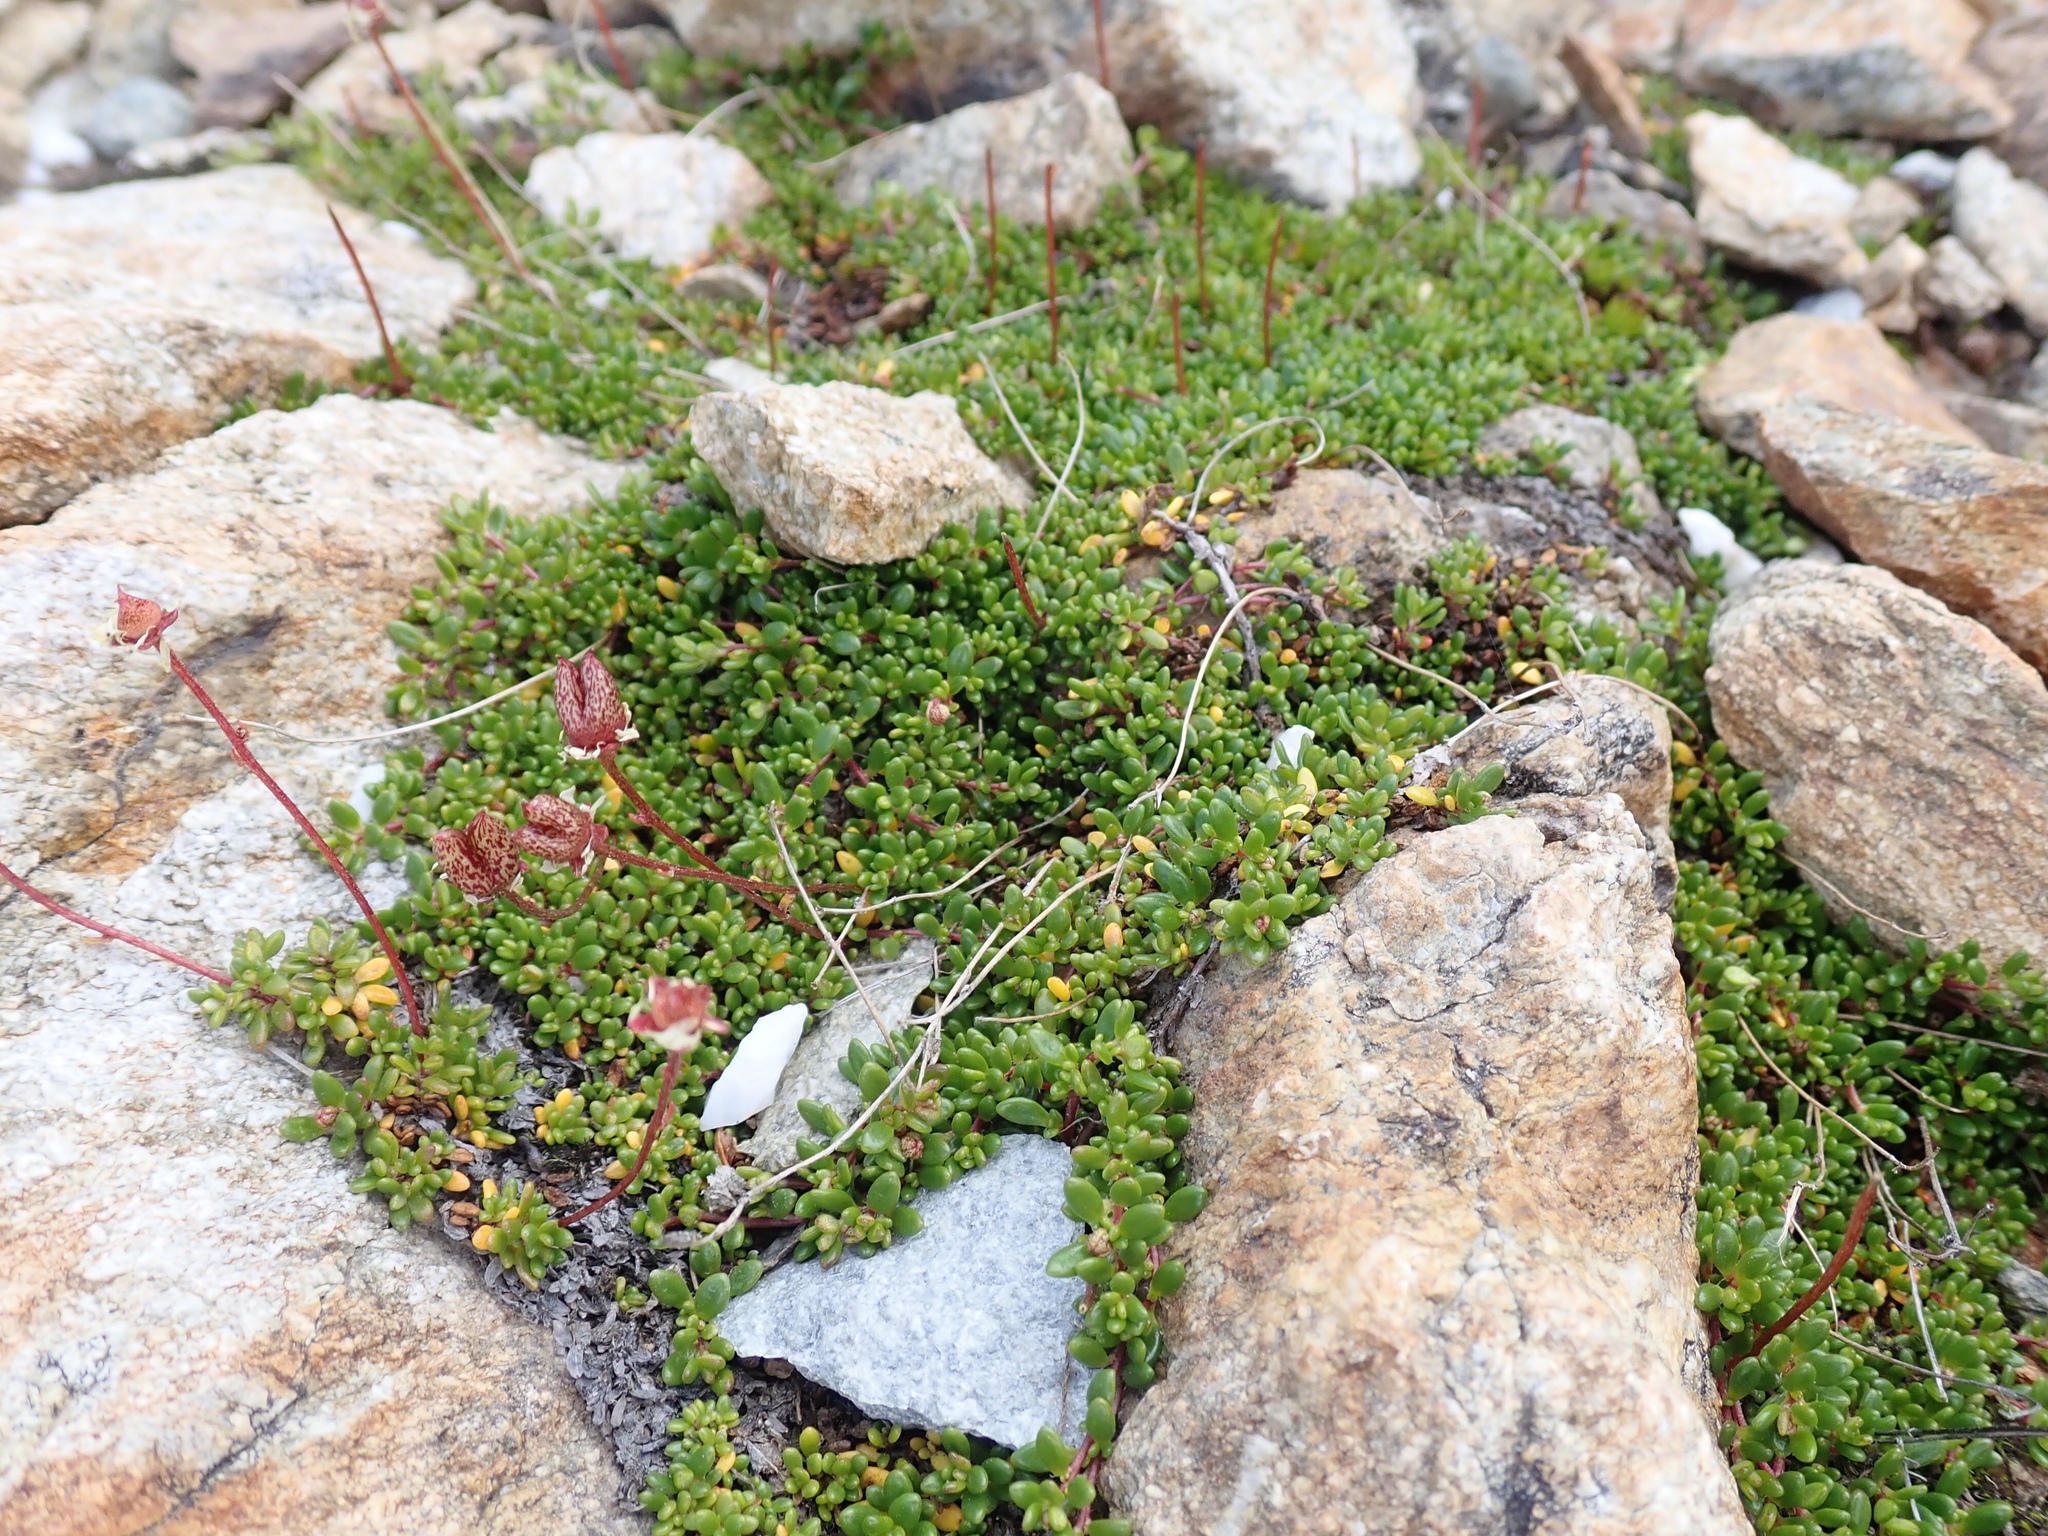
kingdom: Plantae
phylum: Tracheophyta
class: Magnoliopsida
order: Saxifragales
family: Saxifragaceae
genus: Micranthes
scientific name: Micranthes tolmiei
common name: Tolmie's saxifrage
